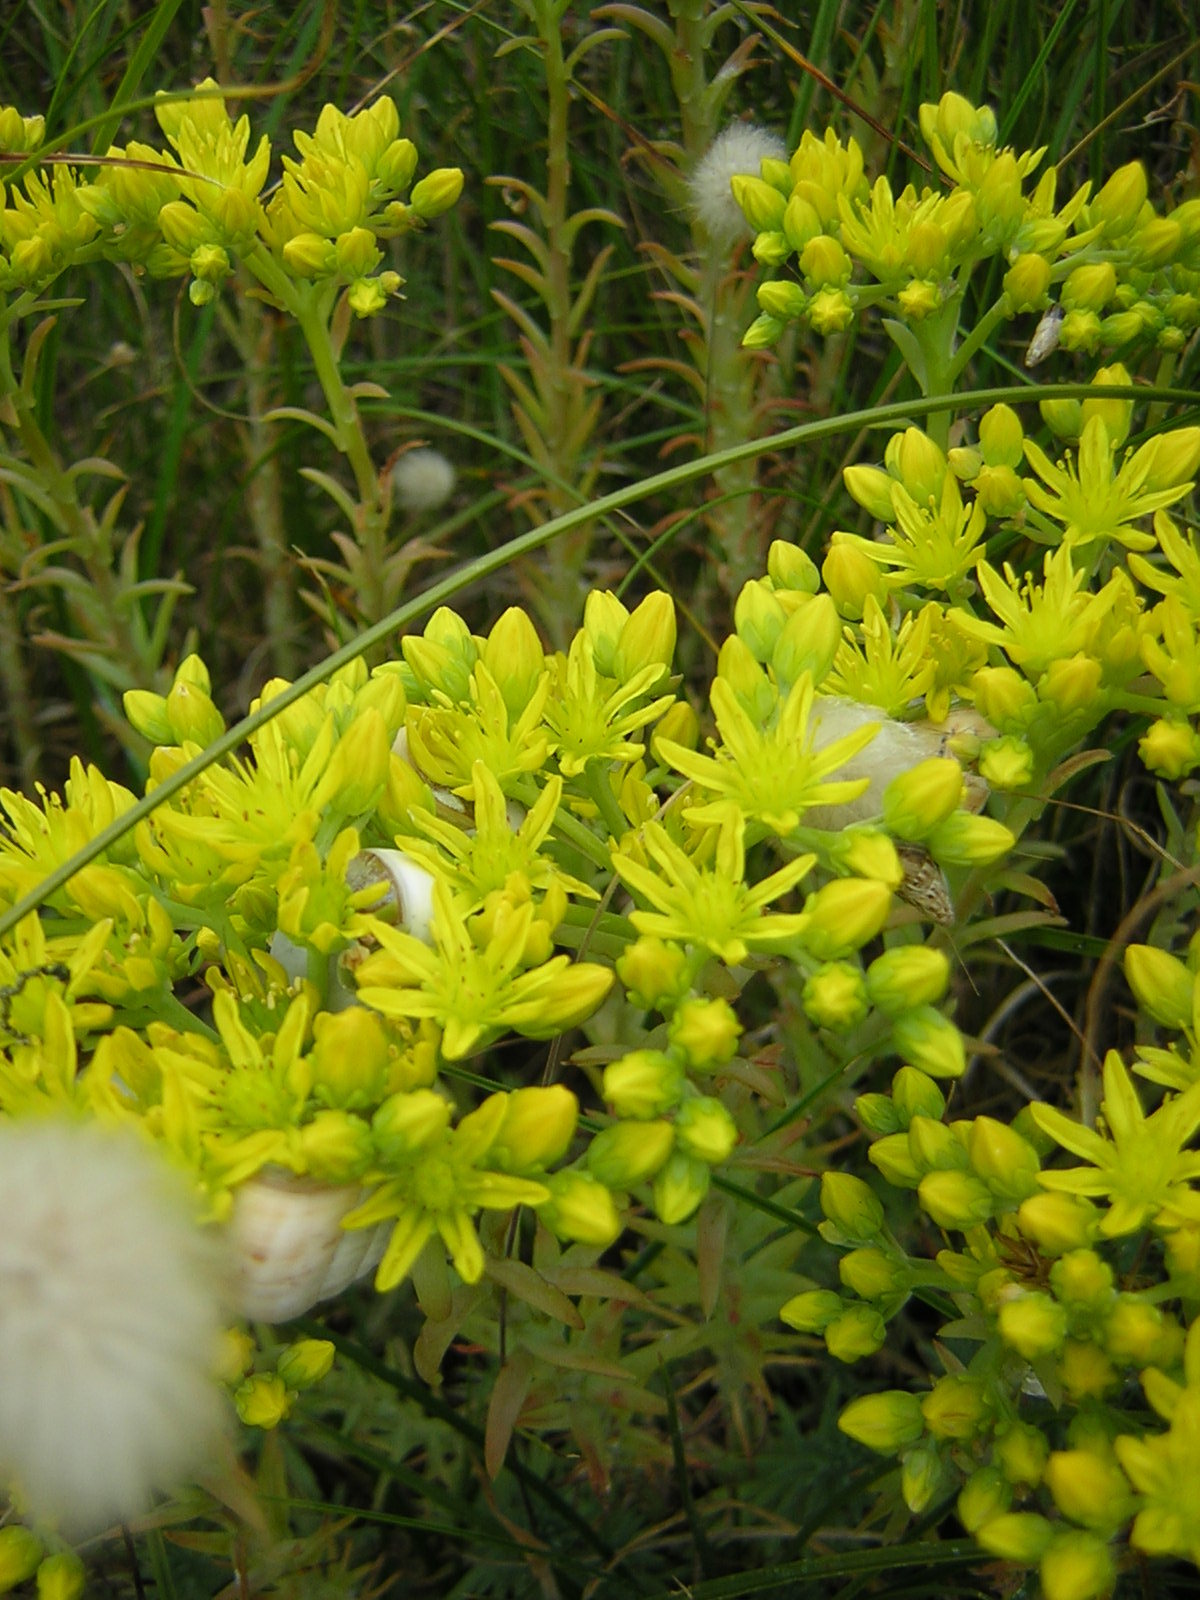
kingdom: Plantae
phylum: Tracheophyta
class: Magnoliopsida
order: Saxifragales
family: Crassulaceae
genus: Petrosedum
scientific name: Petrosedum rupestre
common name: Jenny's stonecrop
